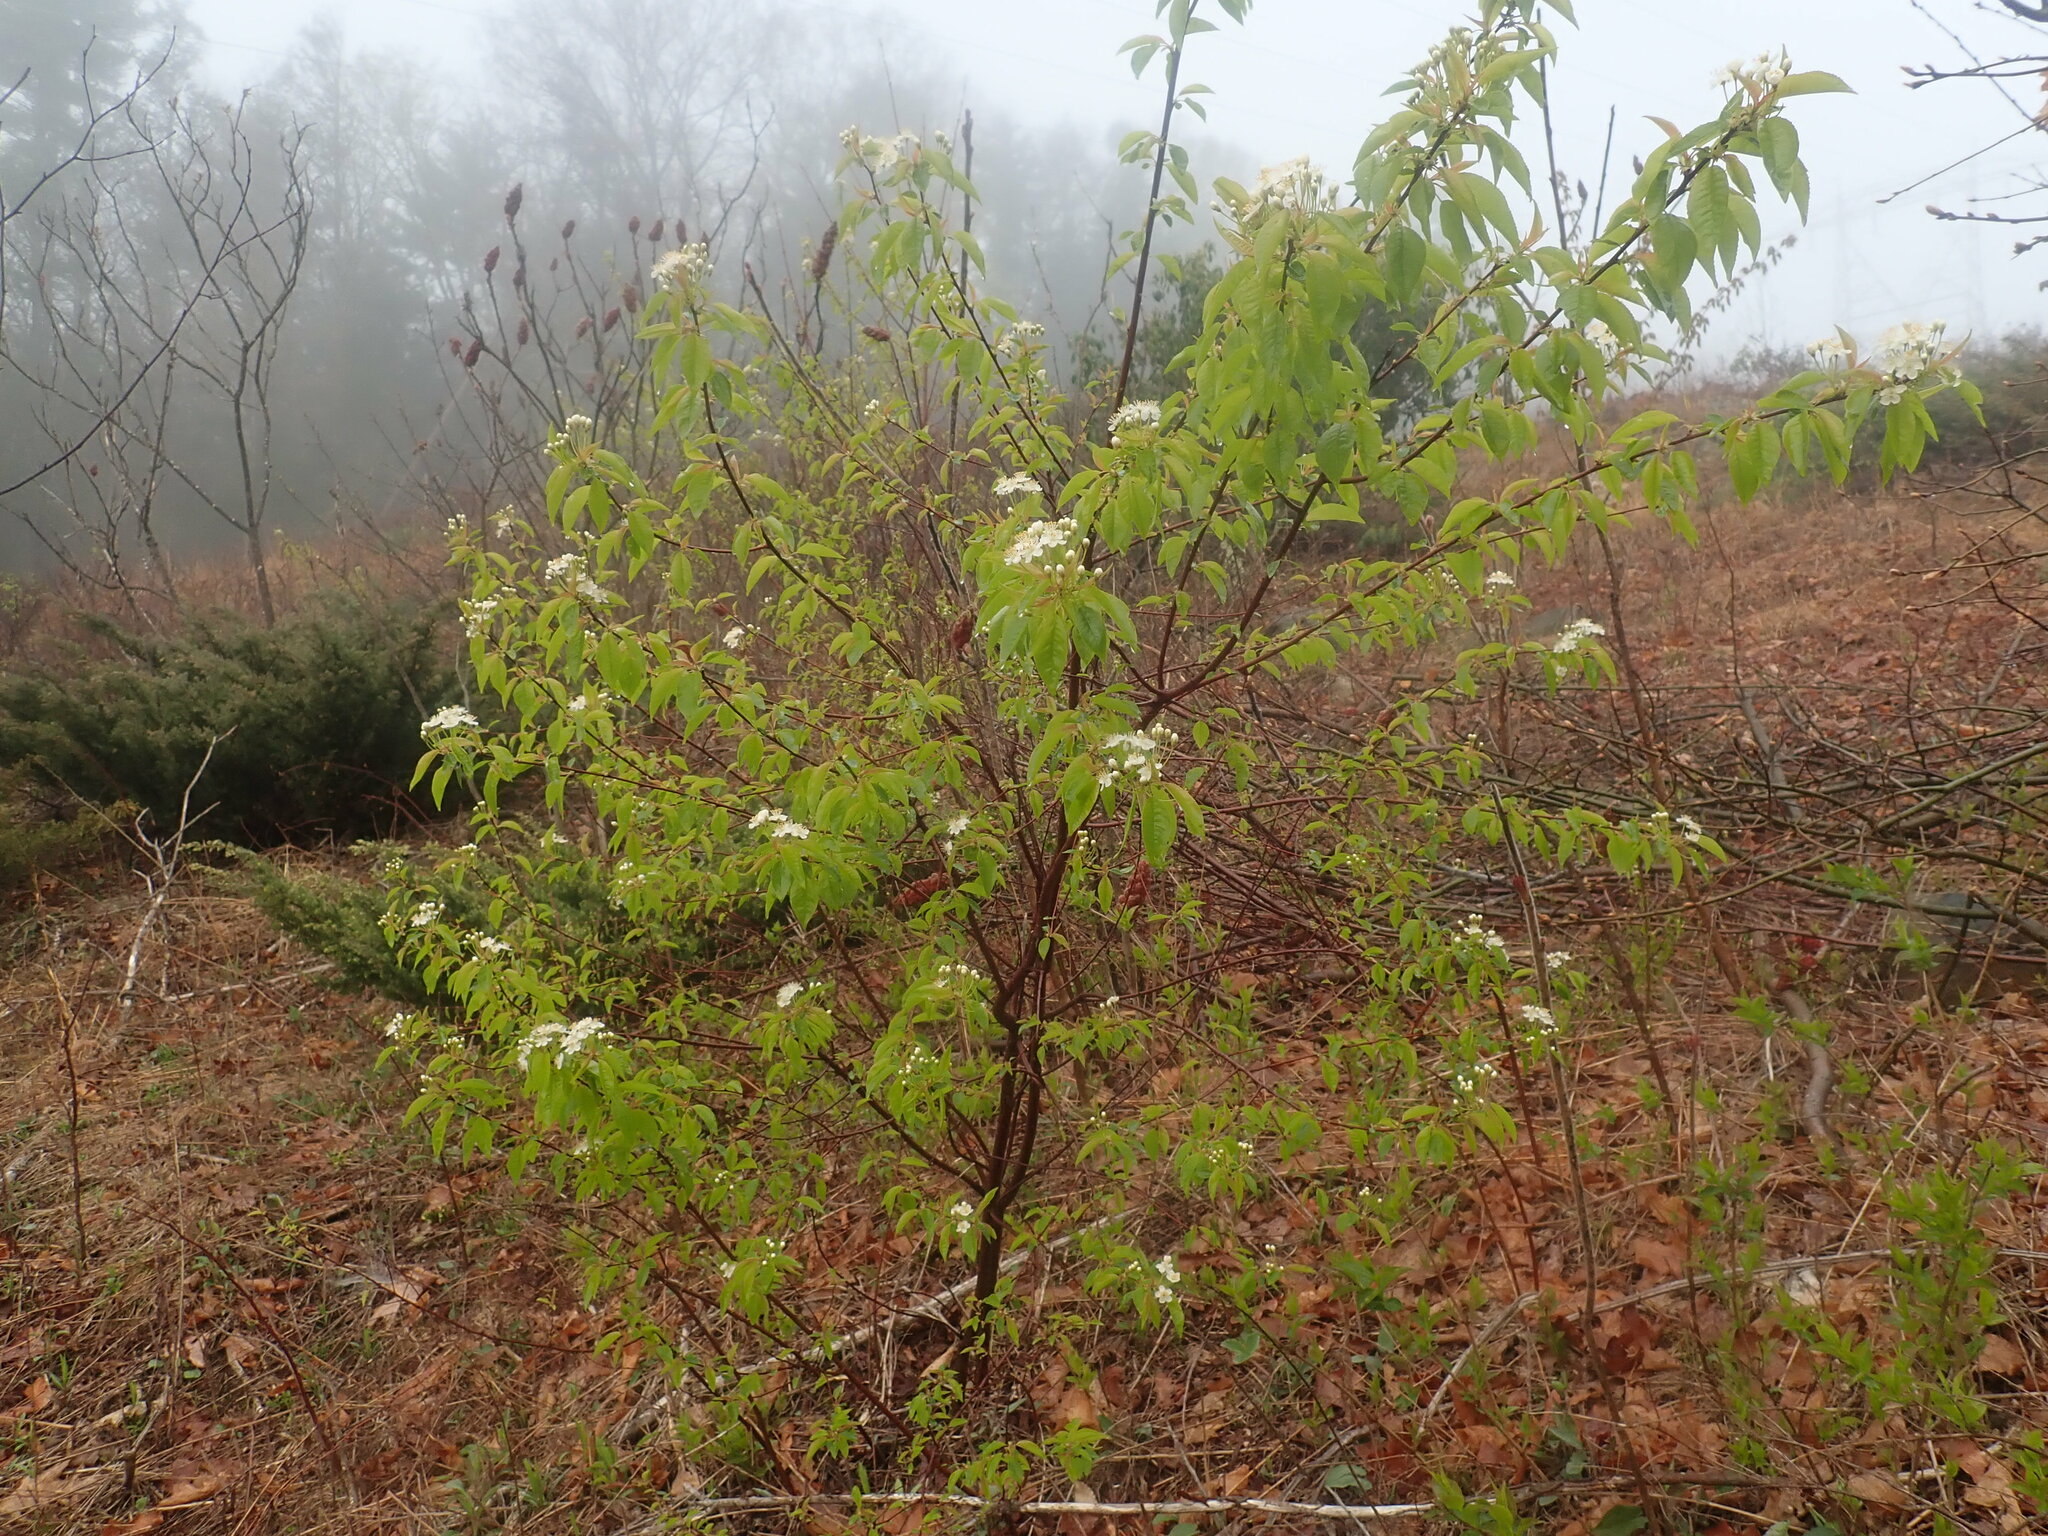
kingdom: Plantae
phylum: Tracheophyta
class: Magnoliopsida
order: Rosales
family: Rosaceae
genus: Prunus
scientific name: Prunus pensylvanica
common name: Pin cherry
